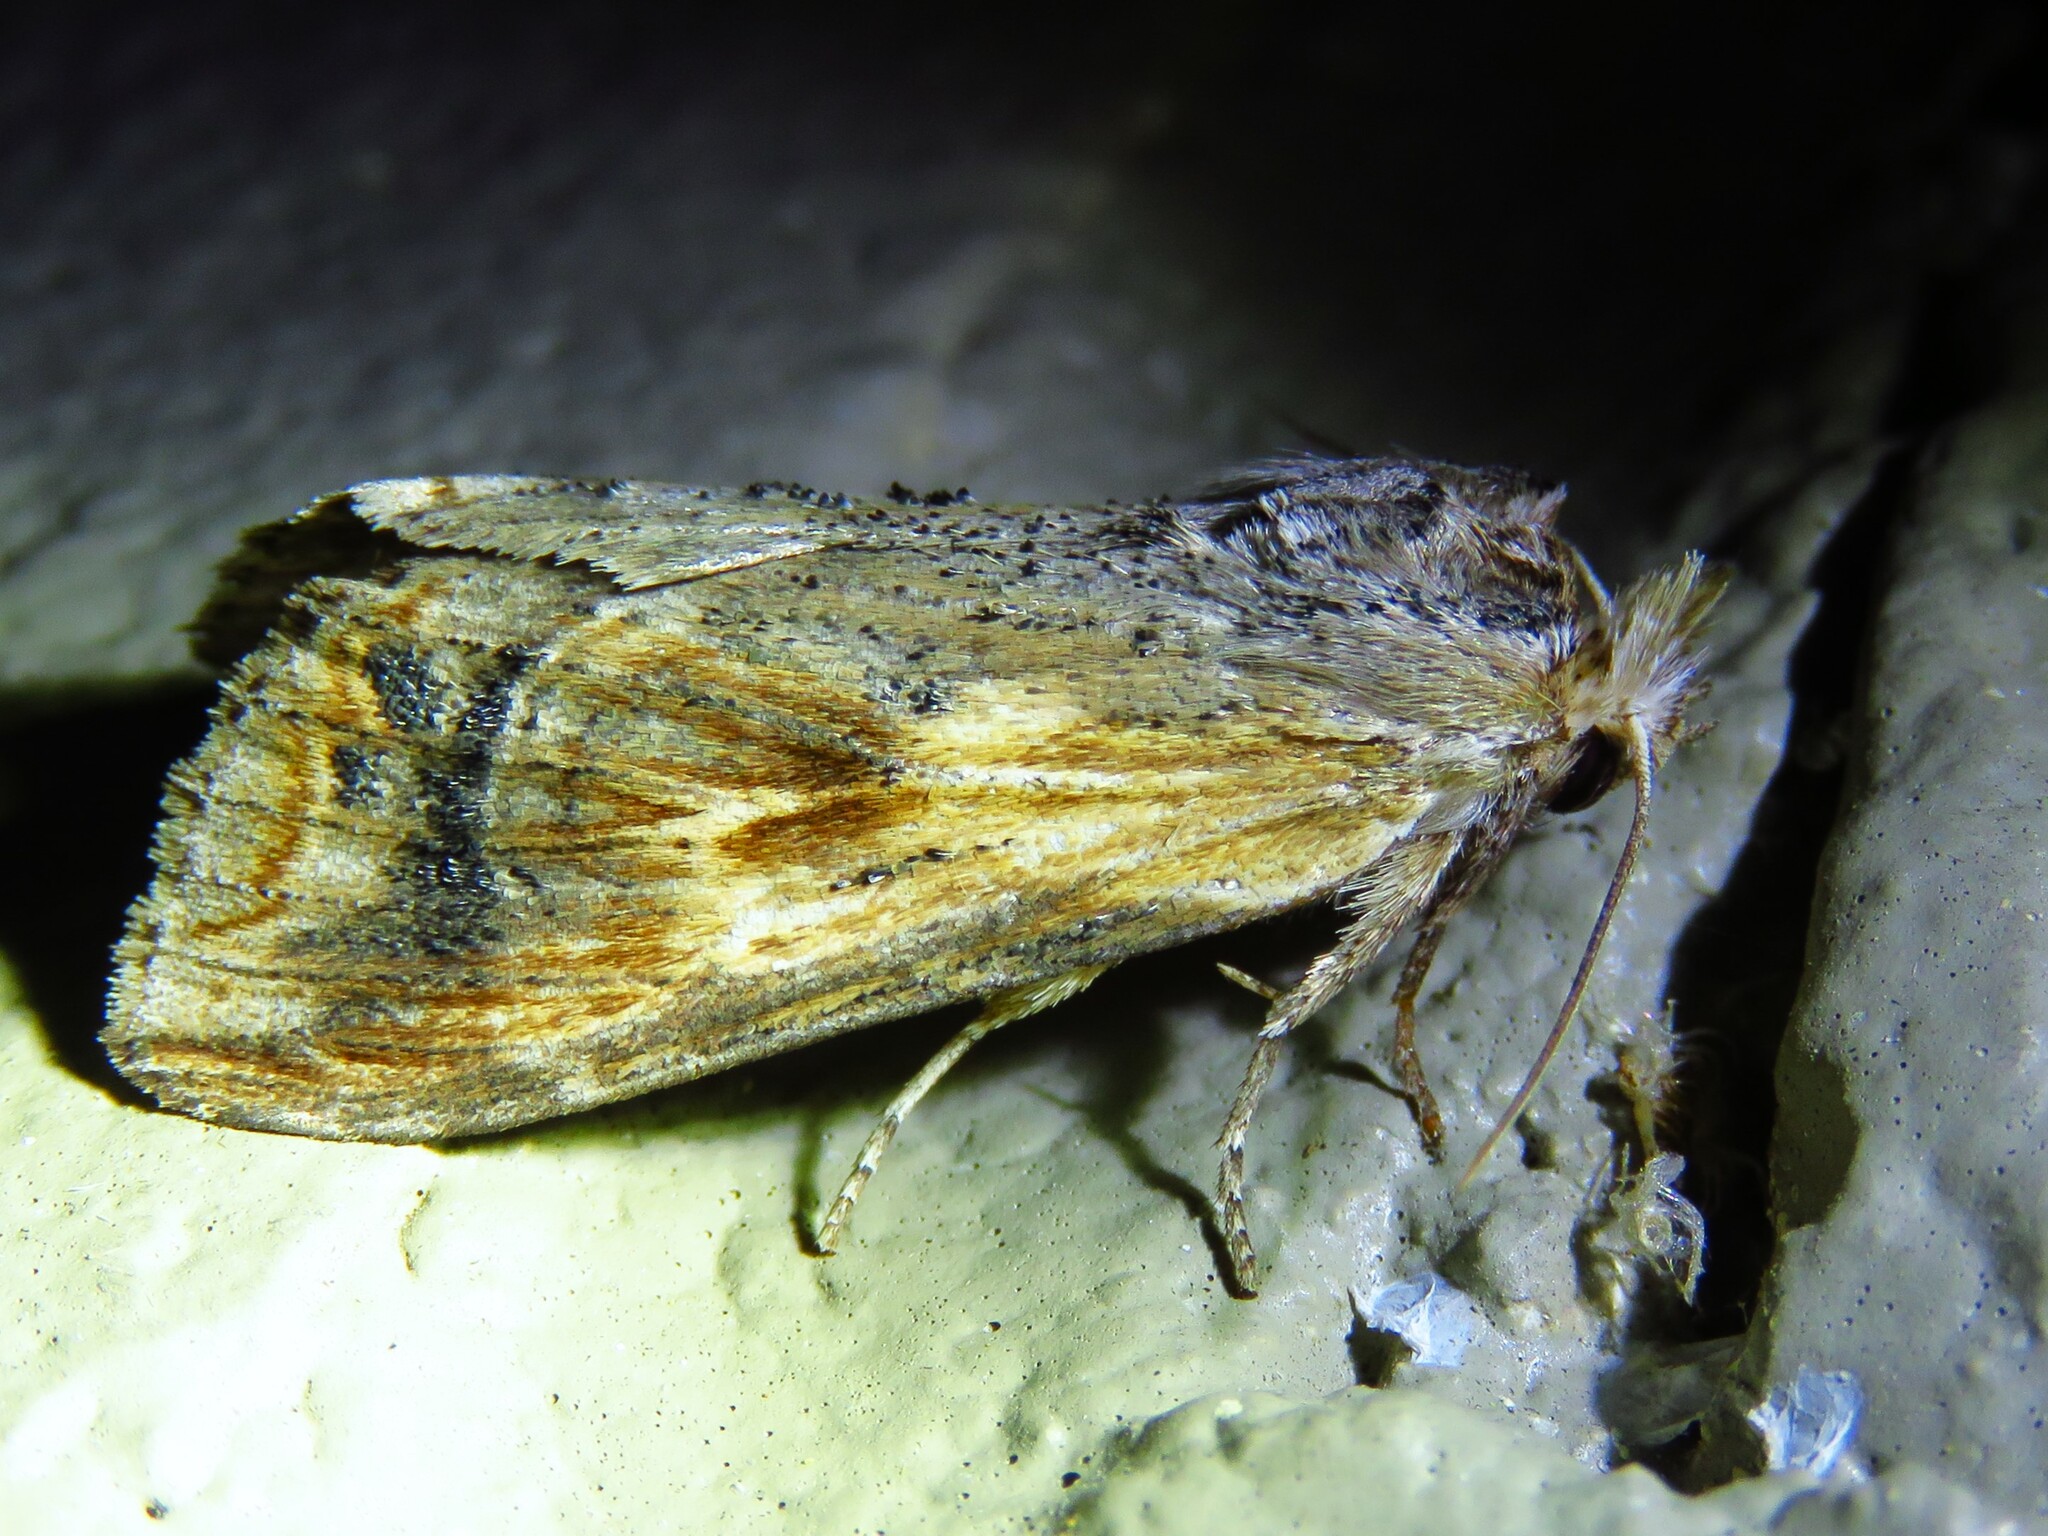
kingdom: Animalia
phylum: Arthropoda
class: Insecta
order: Lepidoptera
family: Notodontidae
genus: Dasylophia
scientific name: Dasylophia anguina
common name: Black-spotted prominent
